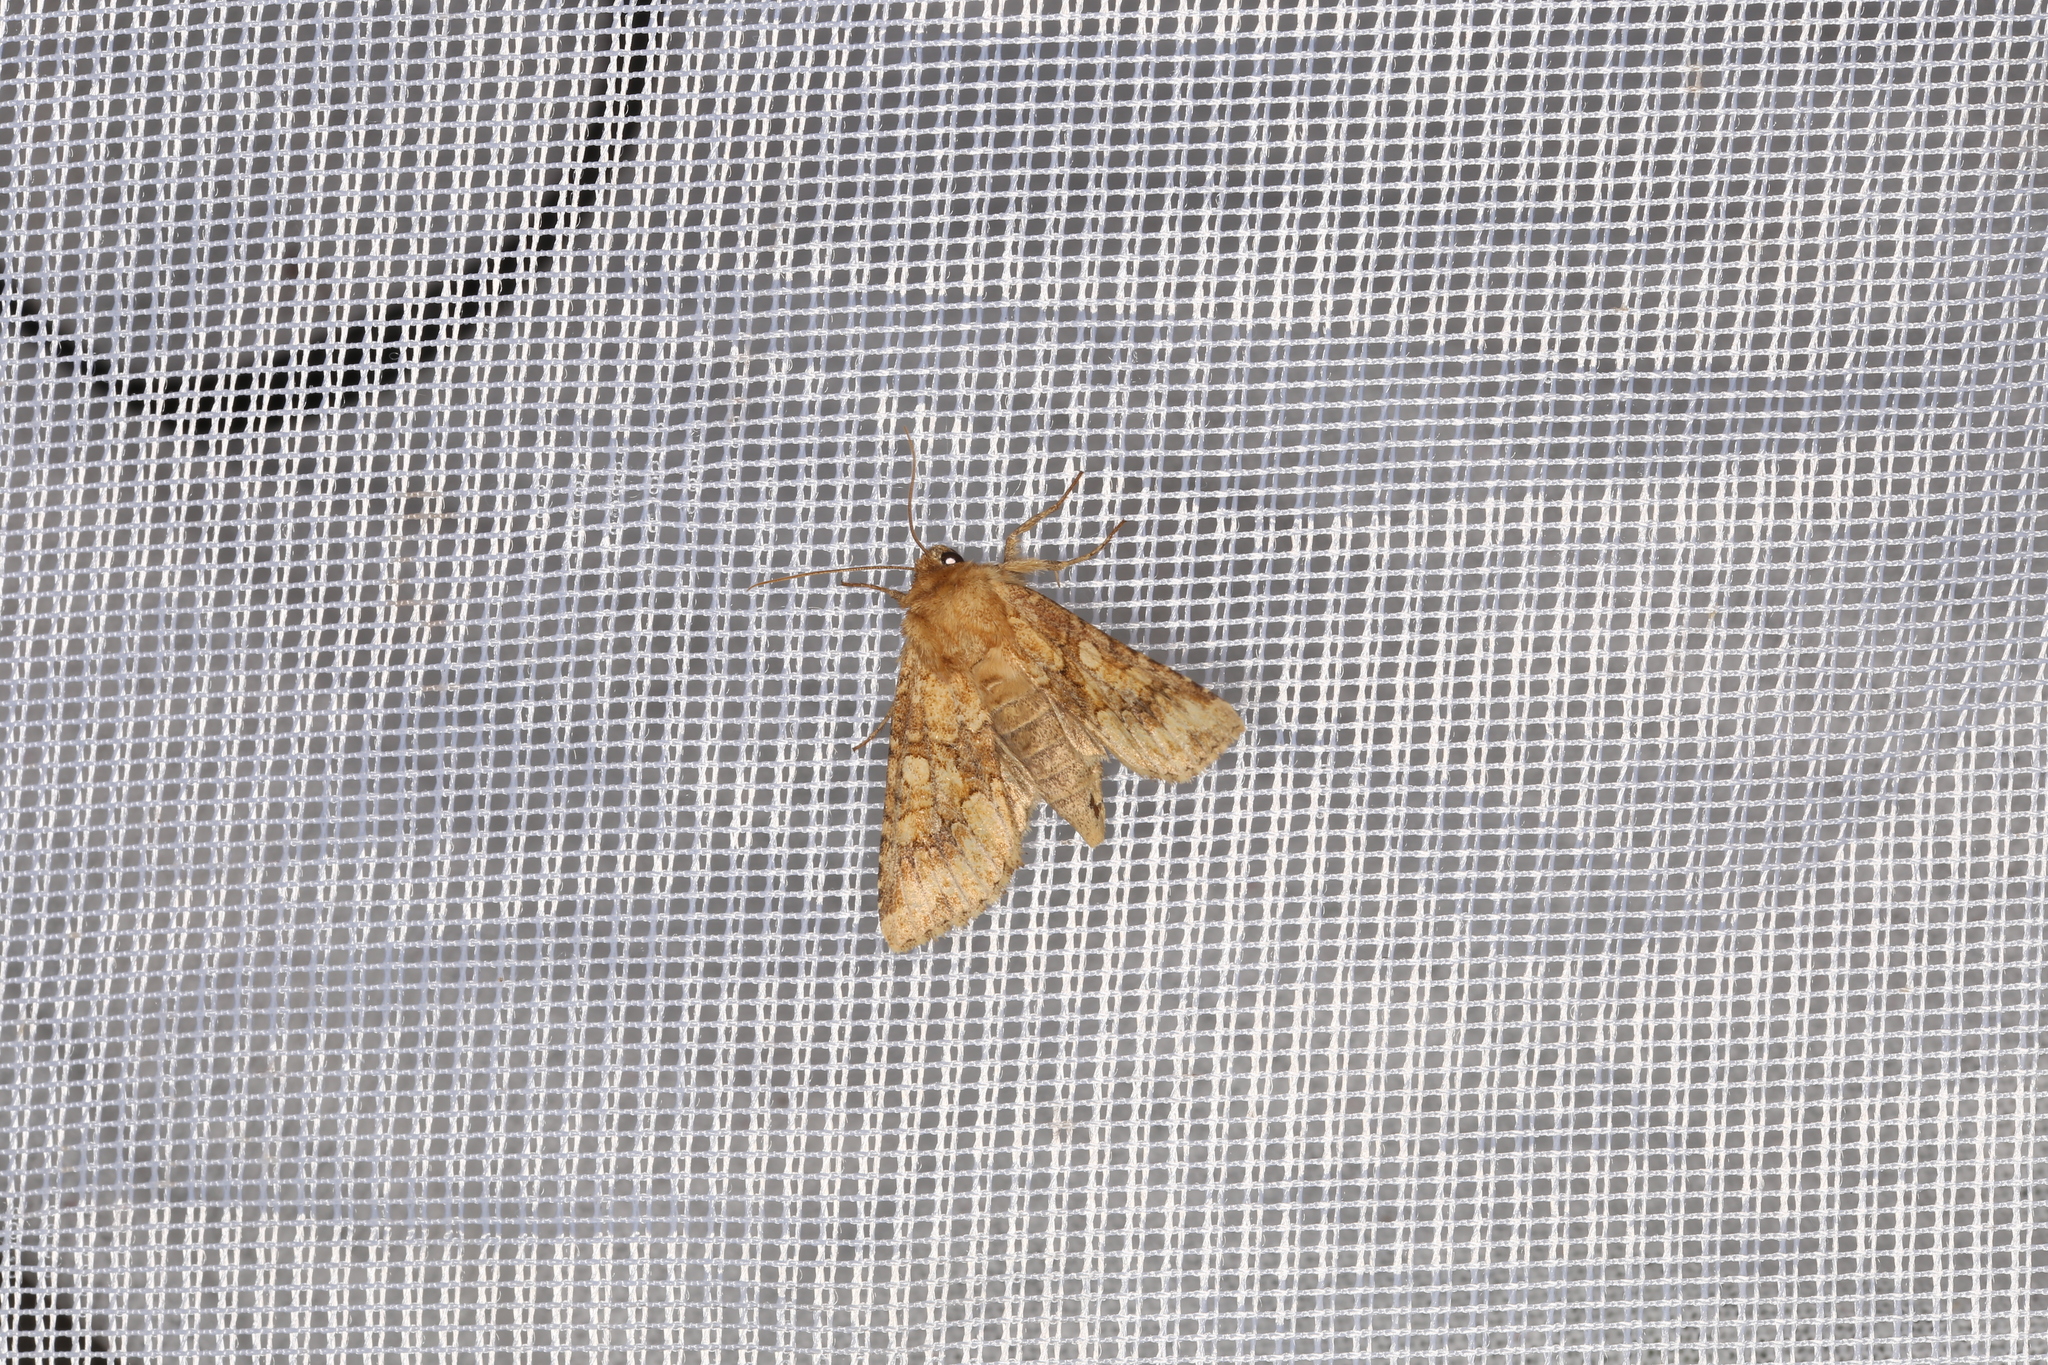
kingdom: Animalia
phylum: Arthropoda
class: Insecta
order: Lepidoptera
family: Noctuidae
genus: Conisania
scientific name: Conisania luteago
